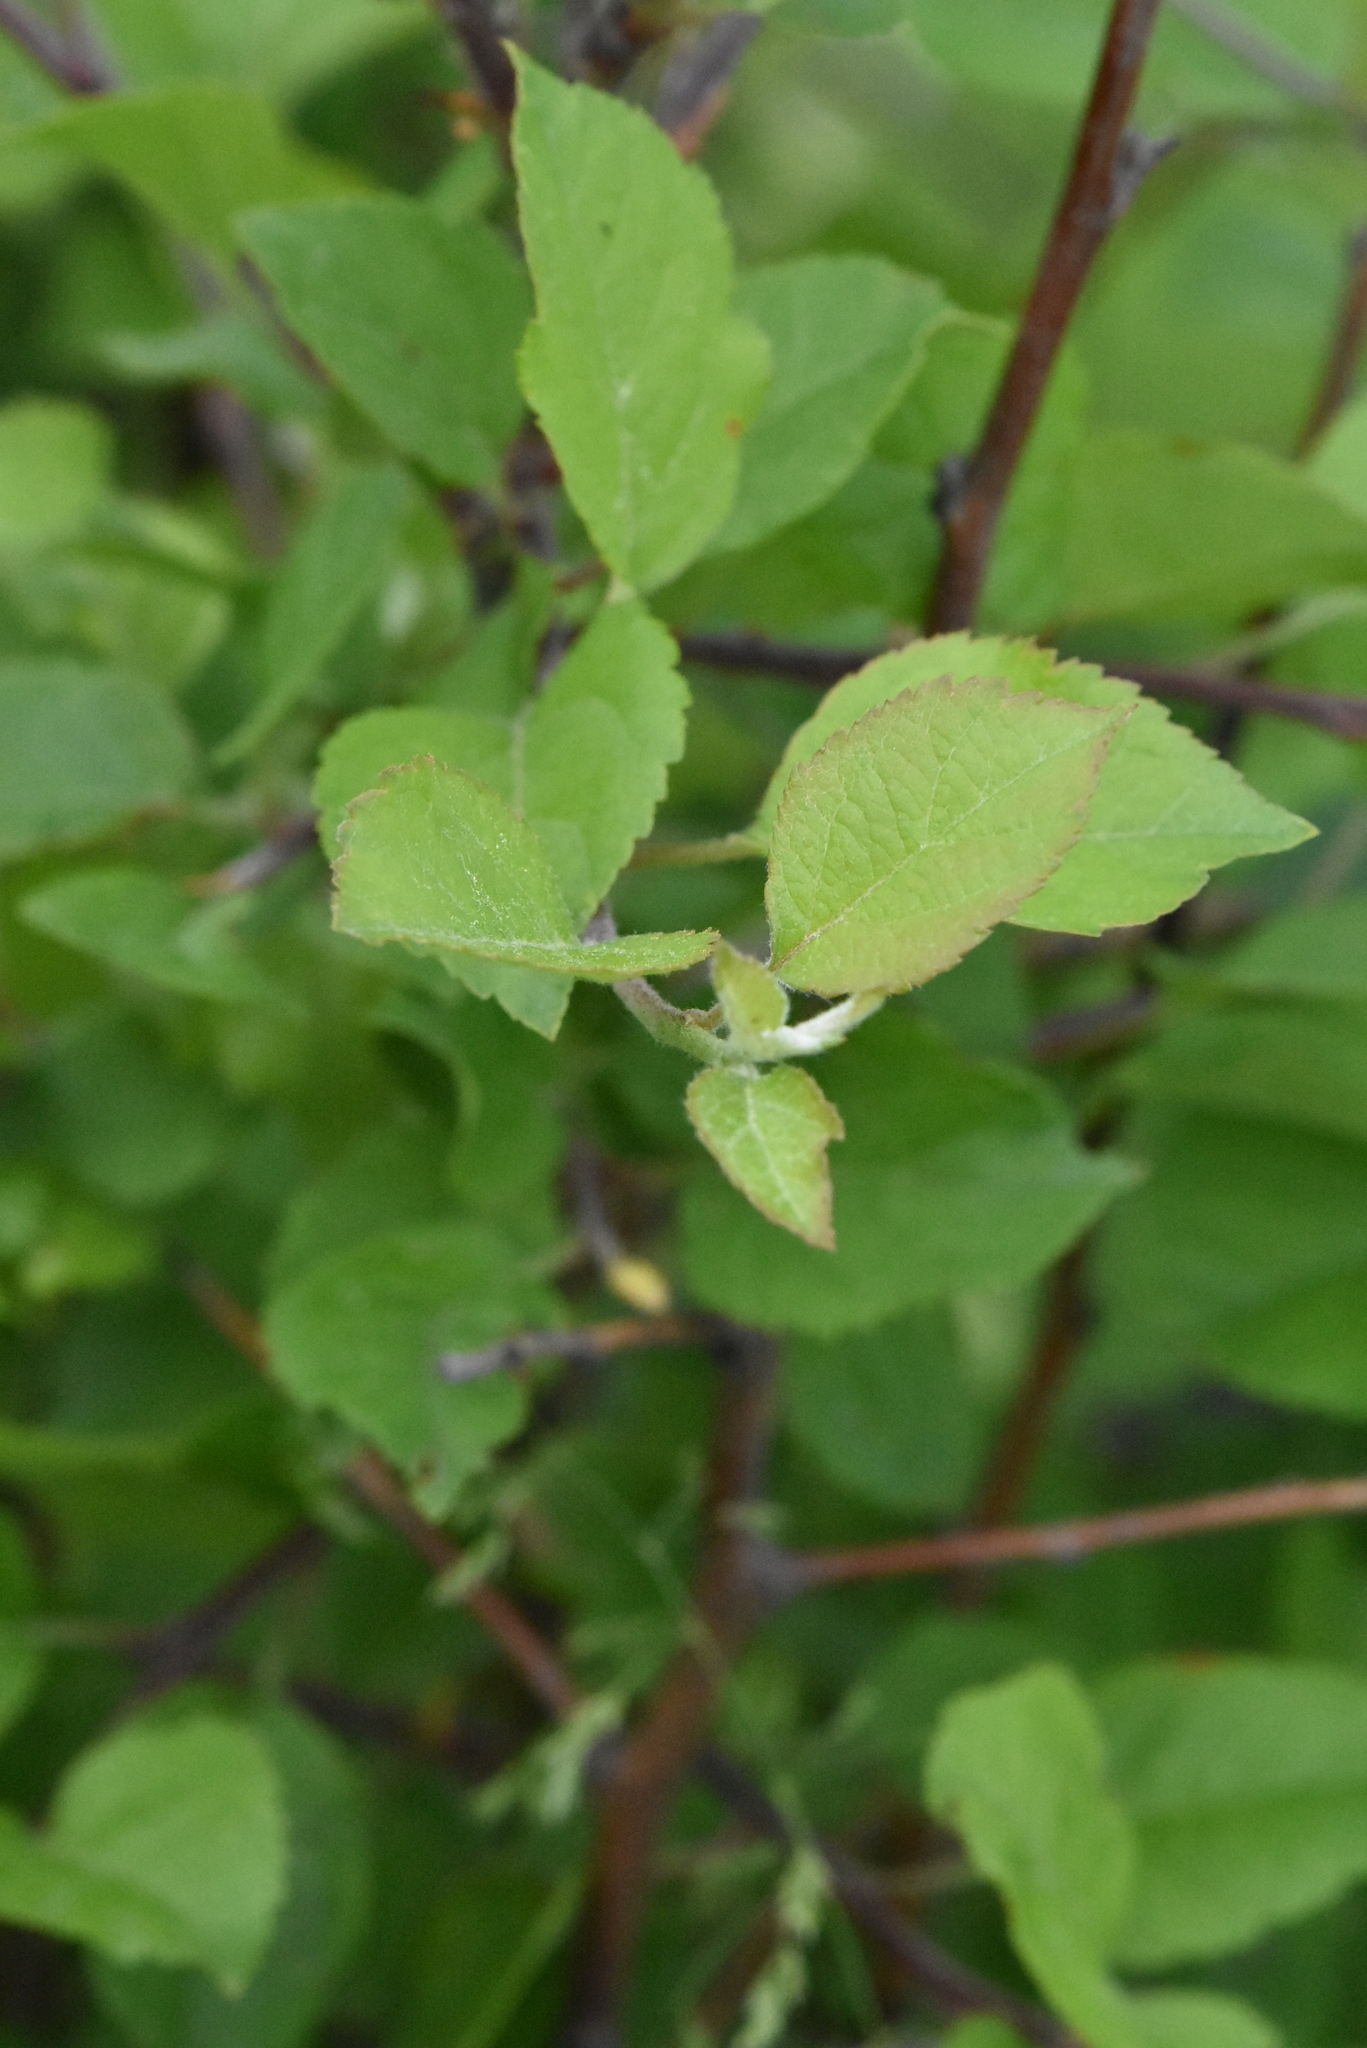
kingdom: Plantae
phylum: Tracheophyta
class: Magnoliopsida
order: Rosales
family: Rosaceae
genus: Malus
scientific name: Malus domestica
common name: Apple
